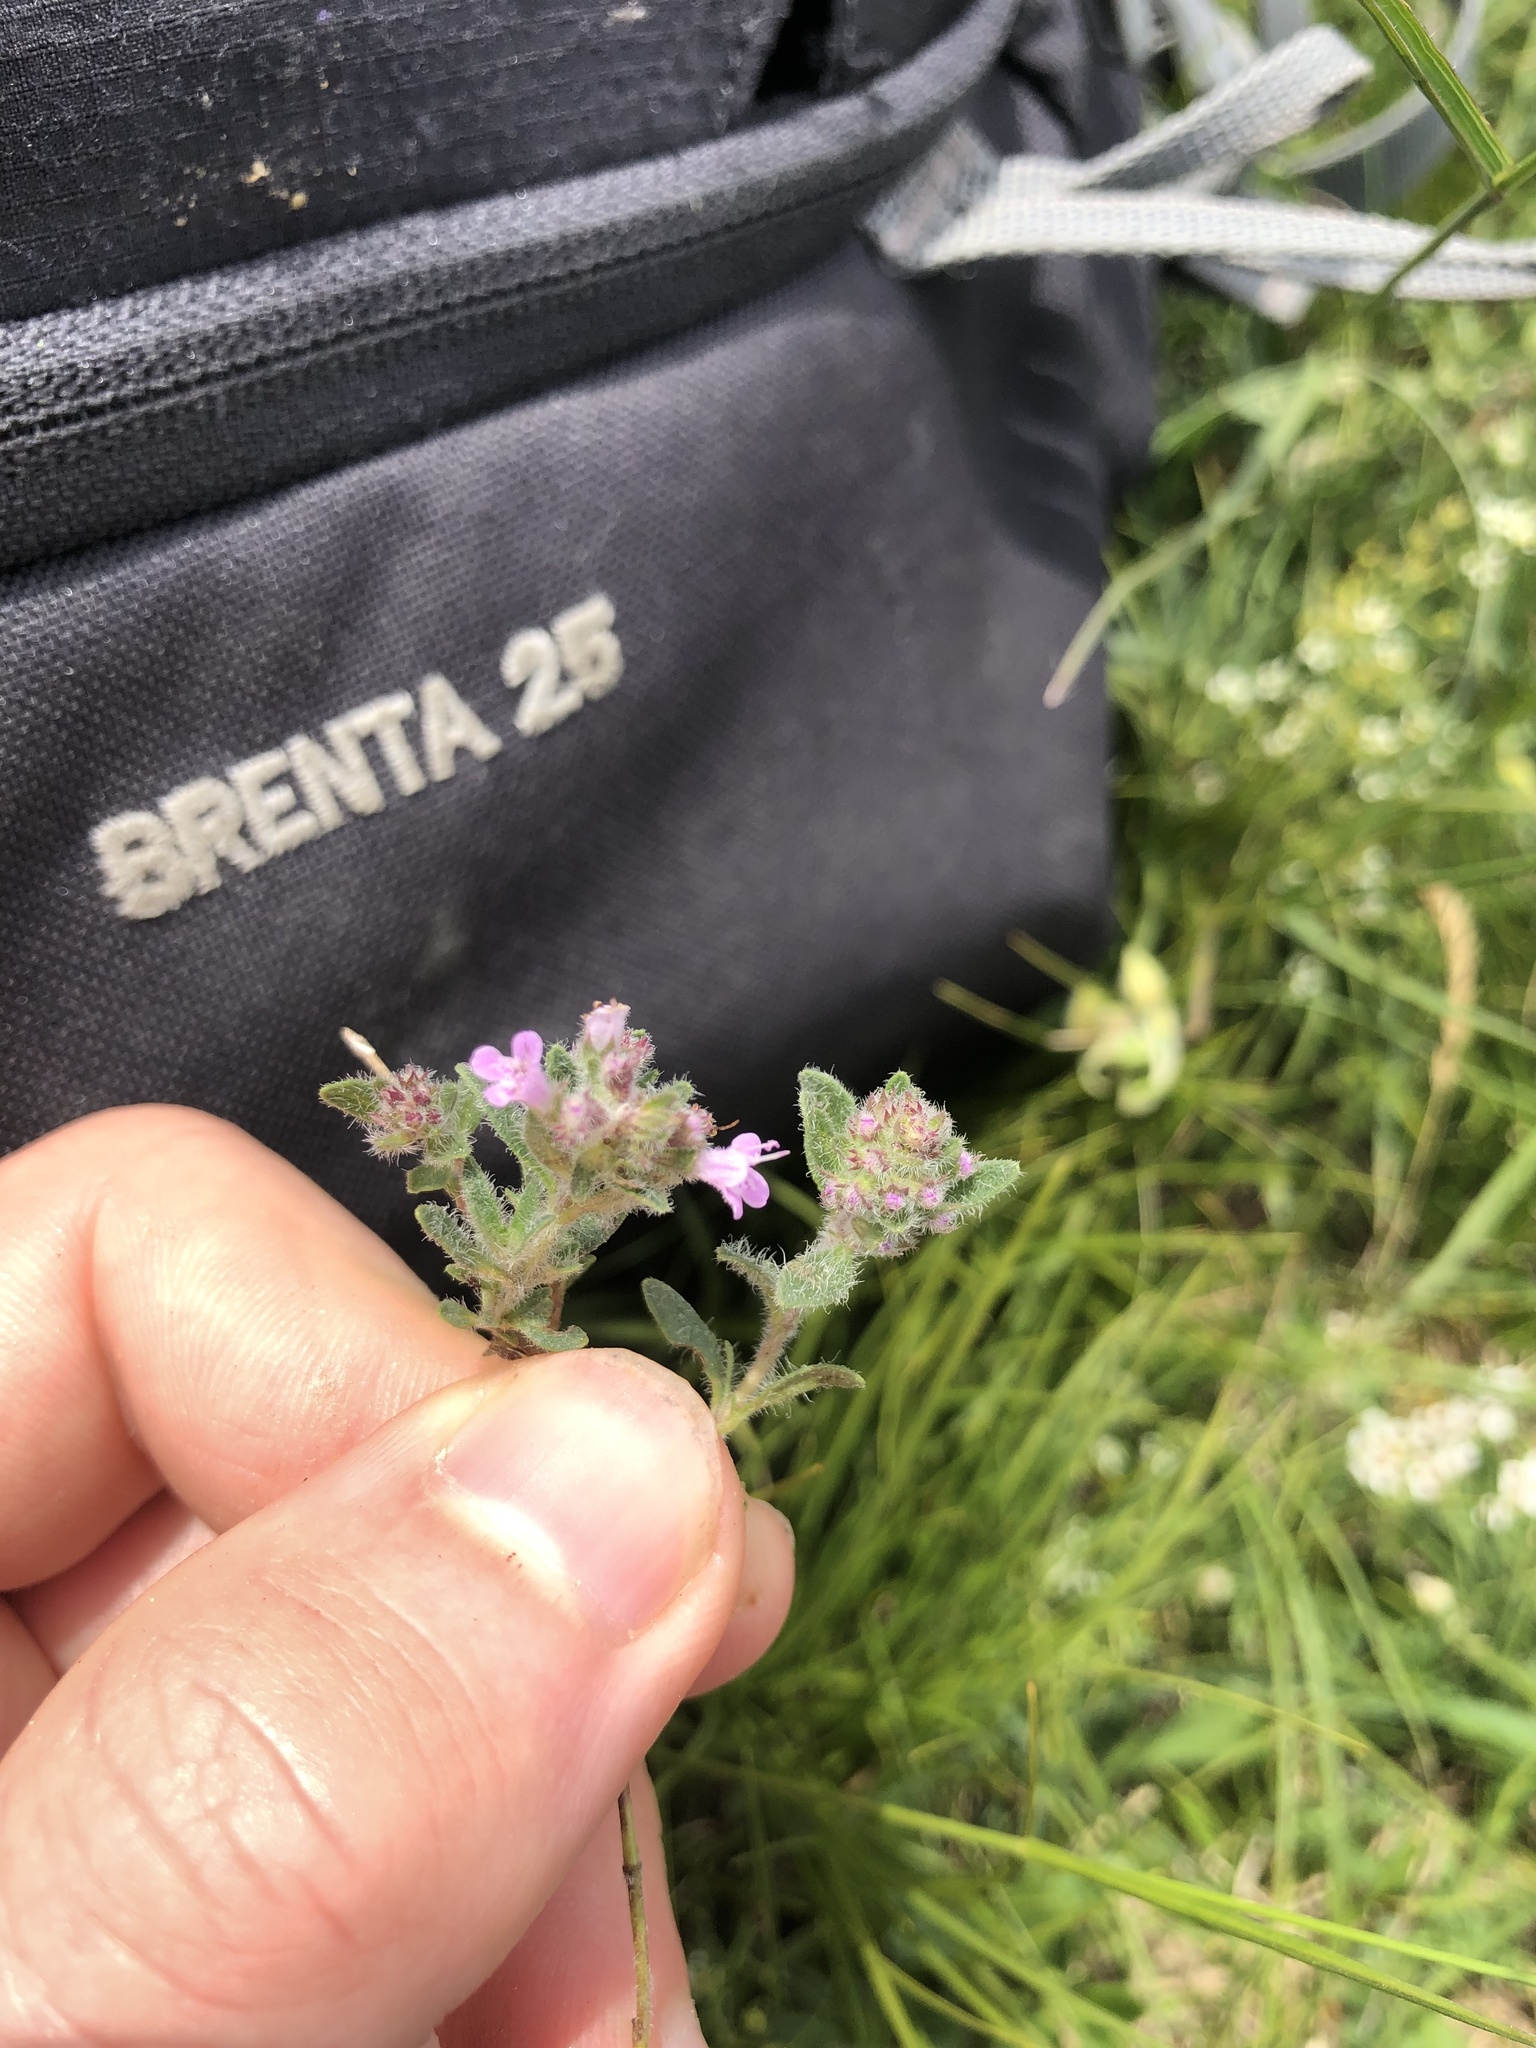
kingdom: Plantae
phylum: Tracheophyta
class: Magnoliopsida
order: Lamiales
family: Lamiaceae
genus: Thymus
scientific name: Thymus odoratissimus
